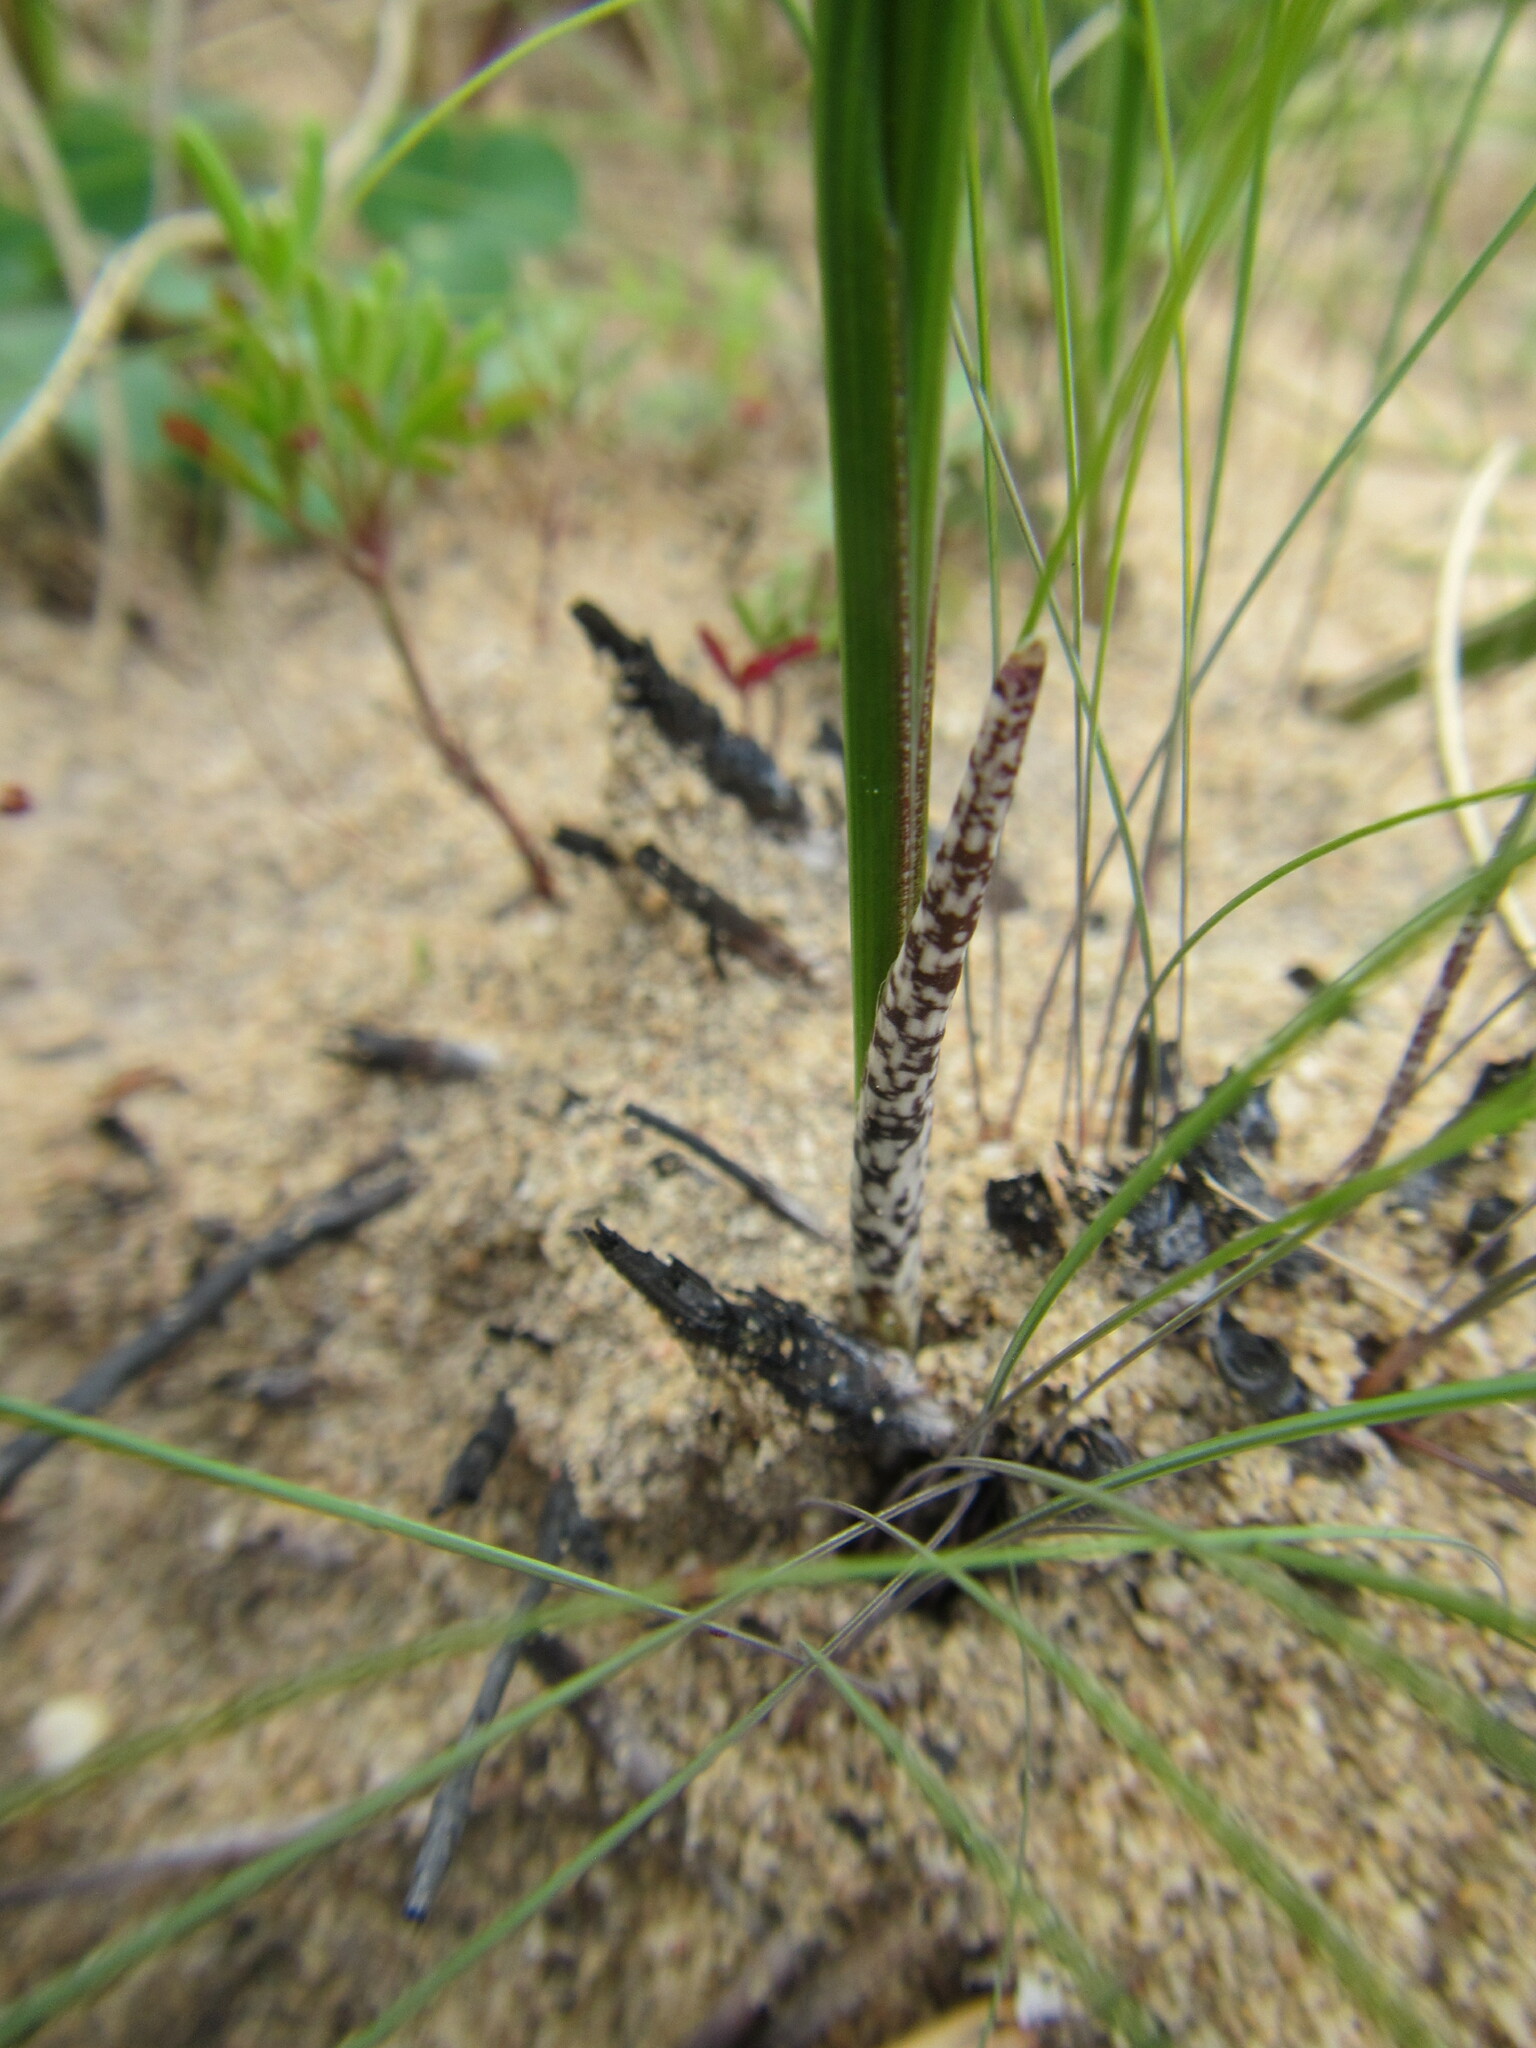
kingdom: Plantae
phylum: Tracheophyta
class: Liliopsida
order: Asparagales
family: Iridaceae
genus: Gladiolus
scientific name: Gladiolus carinatus
